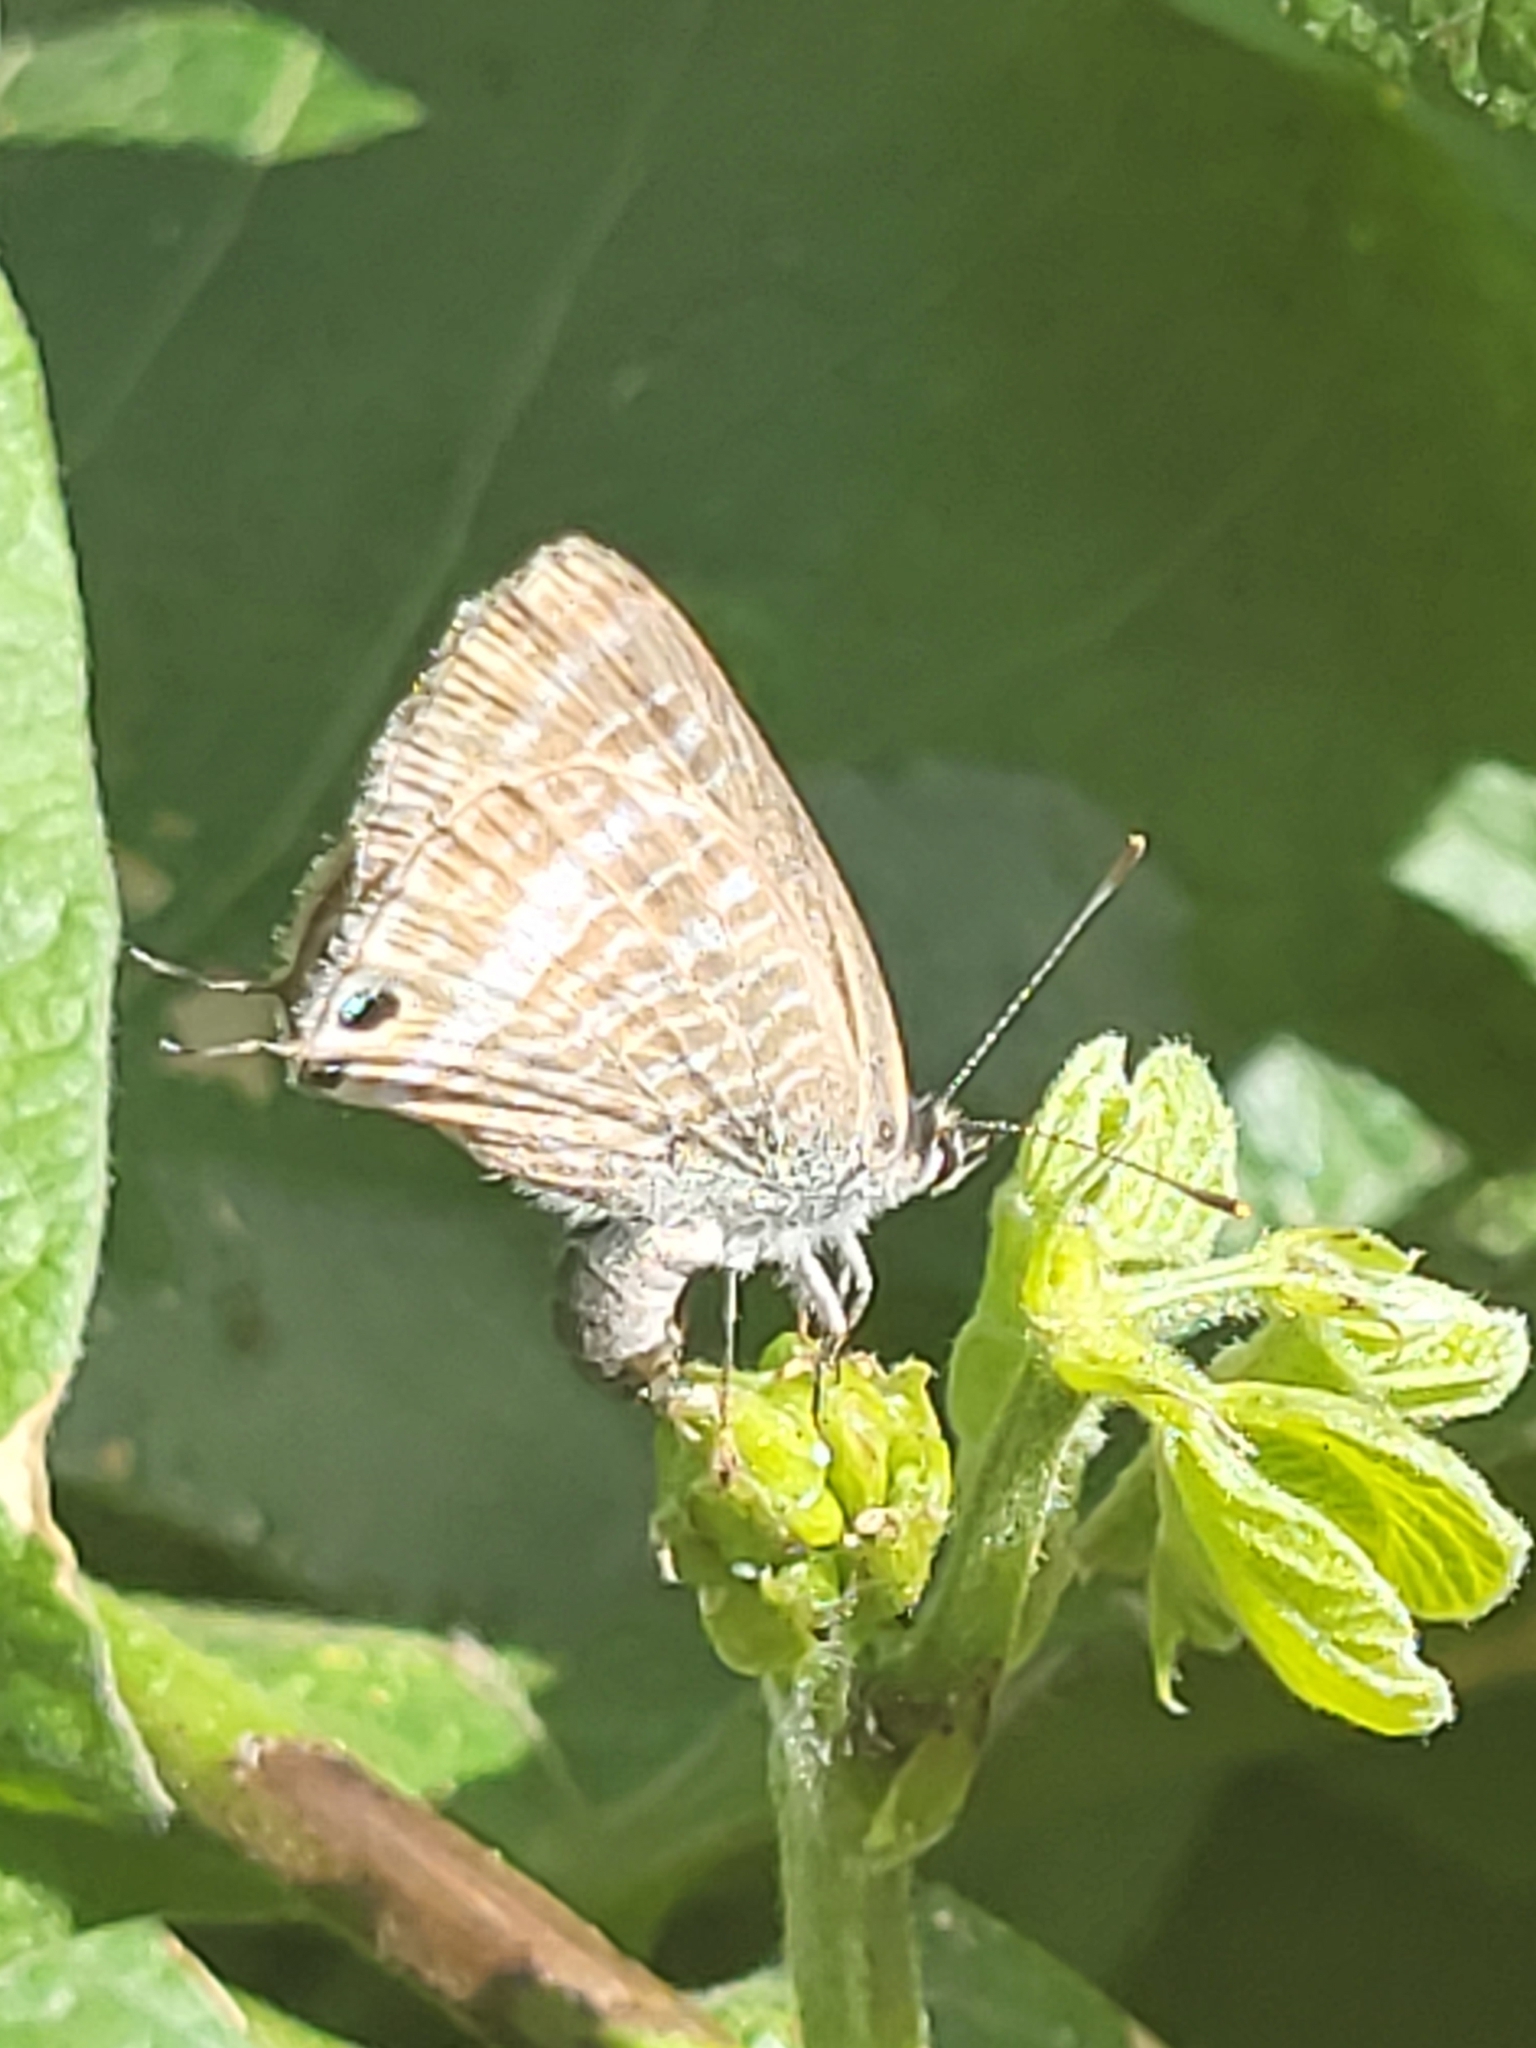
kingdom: Animalia
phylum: Arthropoda
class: Insecta
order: Lepidoptera
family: Lycaenidae
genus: Lampides
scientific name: Lampides boeticus
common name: Long-tailed blue
